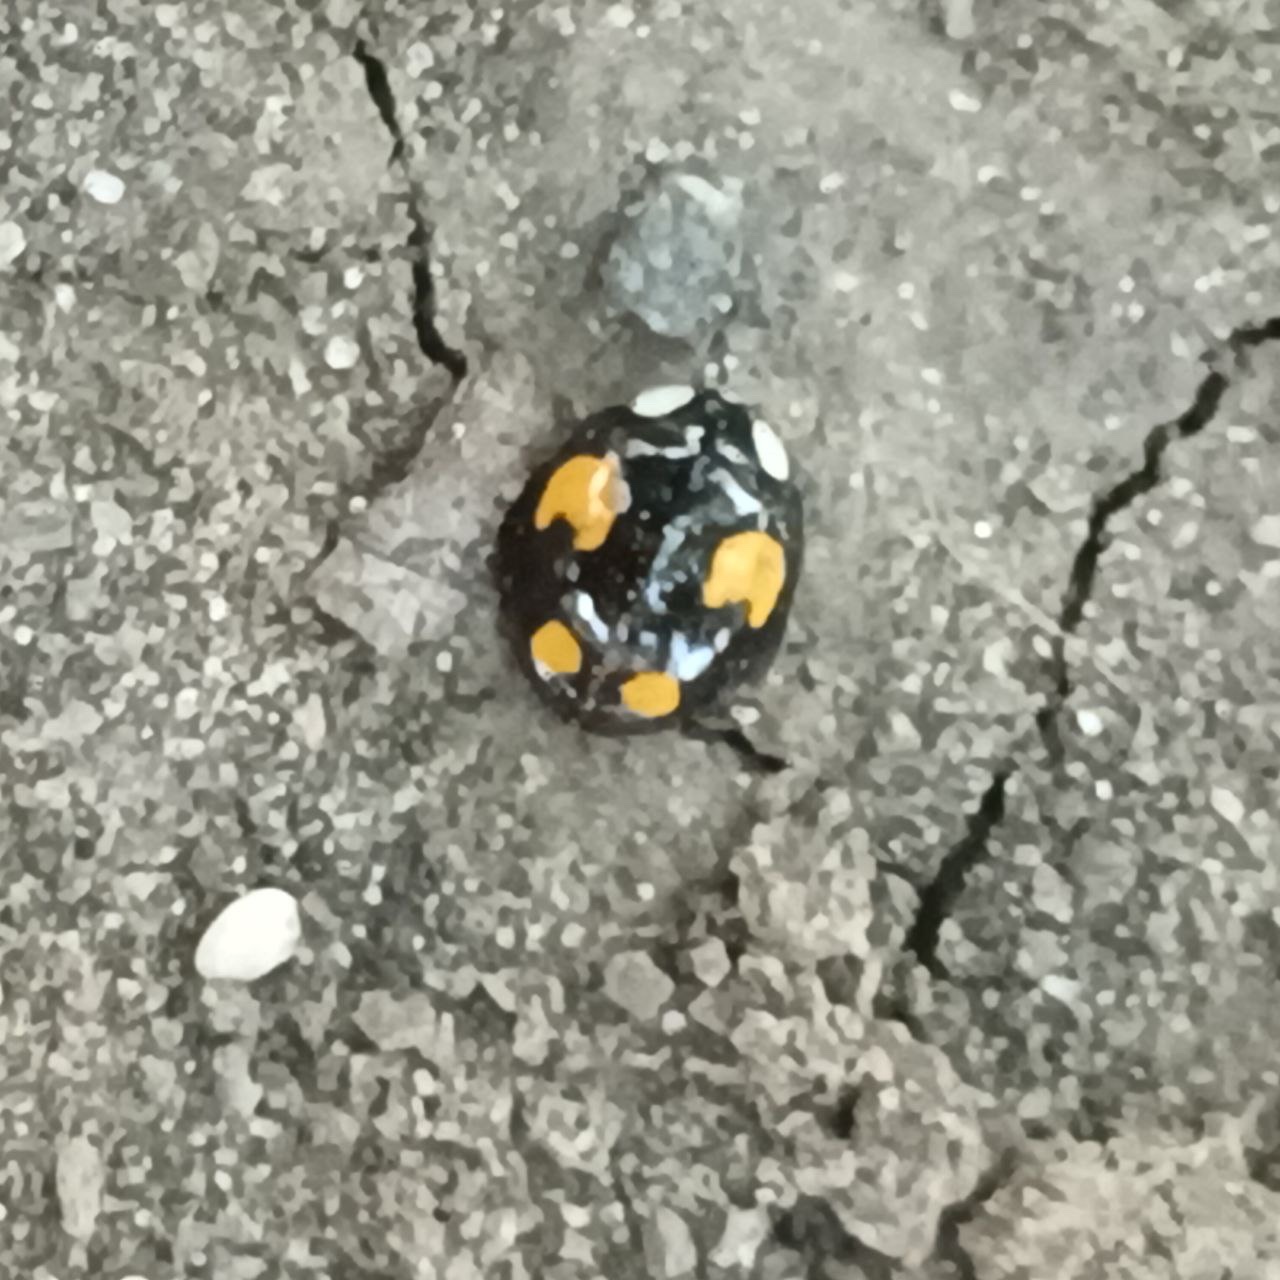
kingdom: Animalia
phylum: Arthropoda
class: Insecta
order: Coleoptera
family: Coccinellidae
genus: Harmonia
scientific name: Harmonia axyridis
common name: Harlequin ladybird
